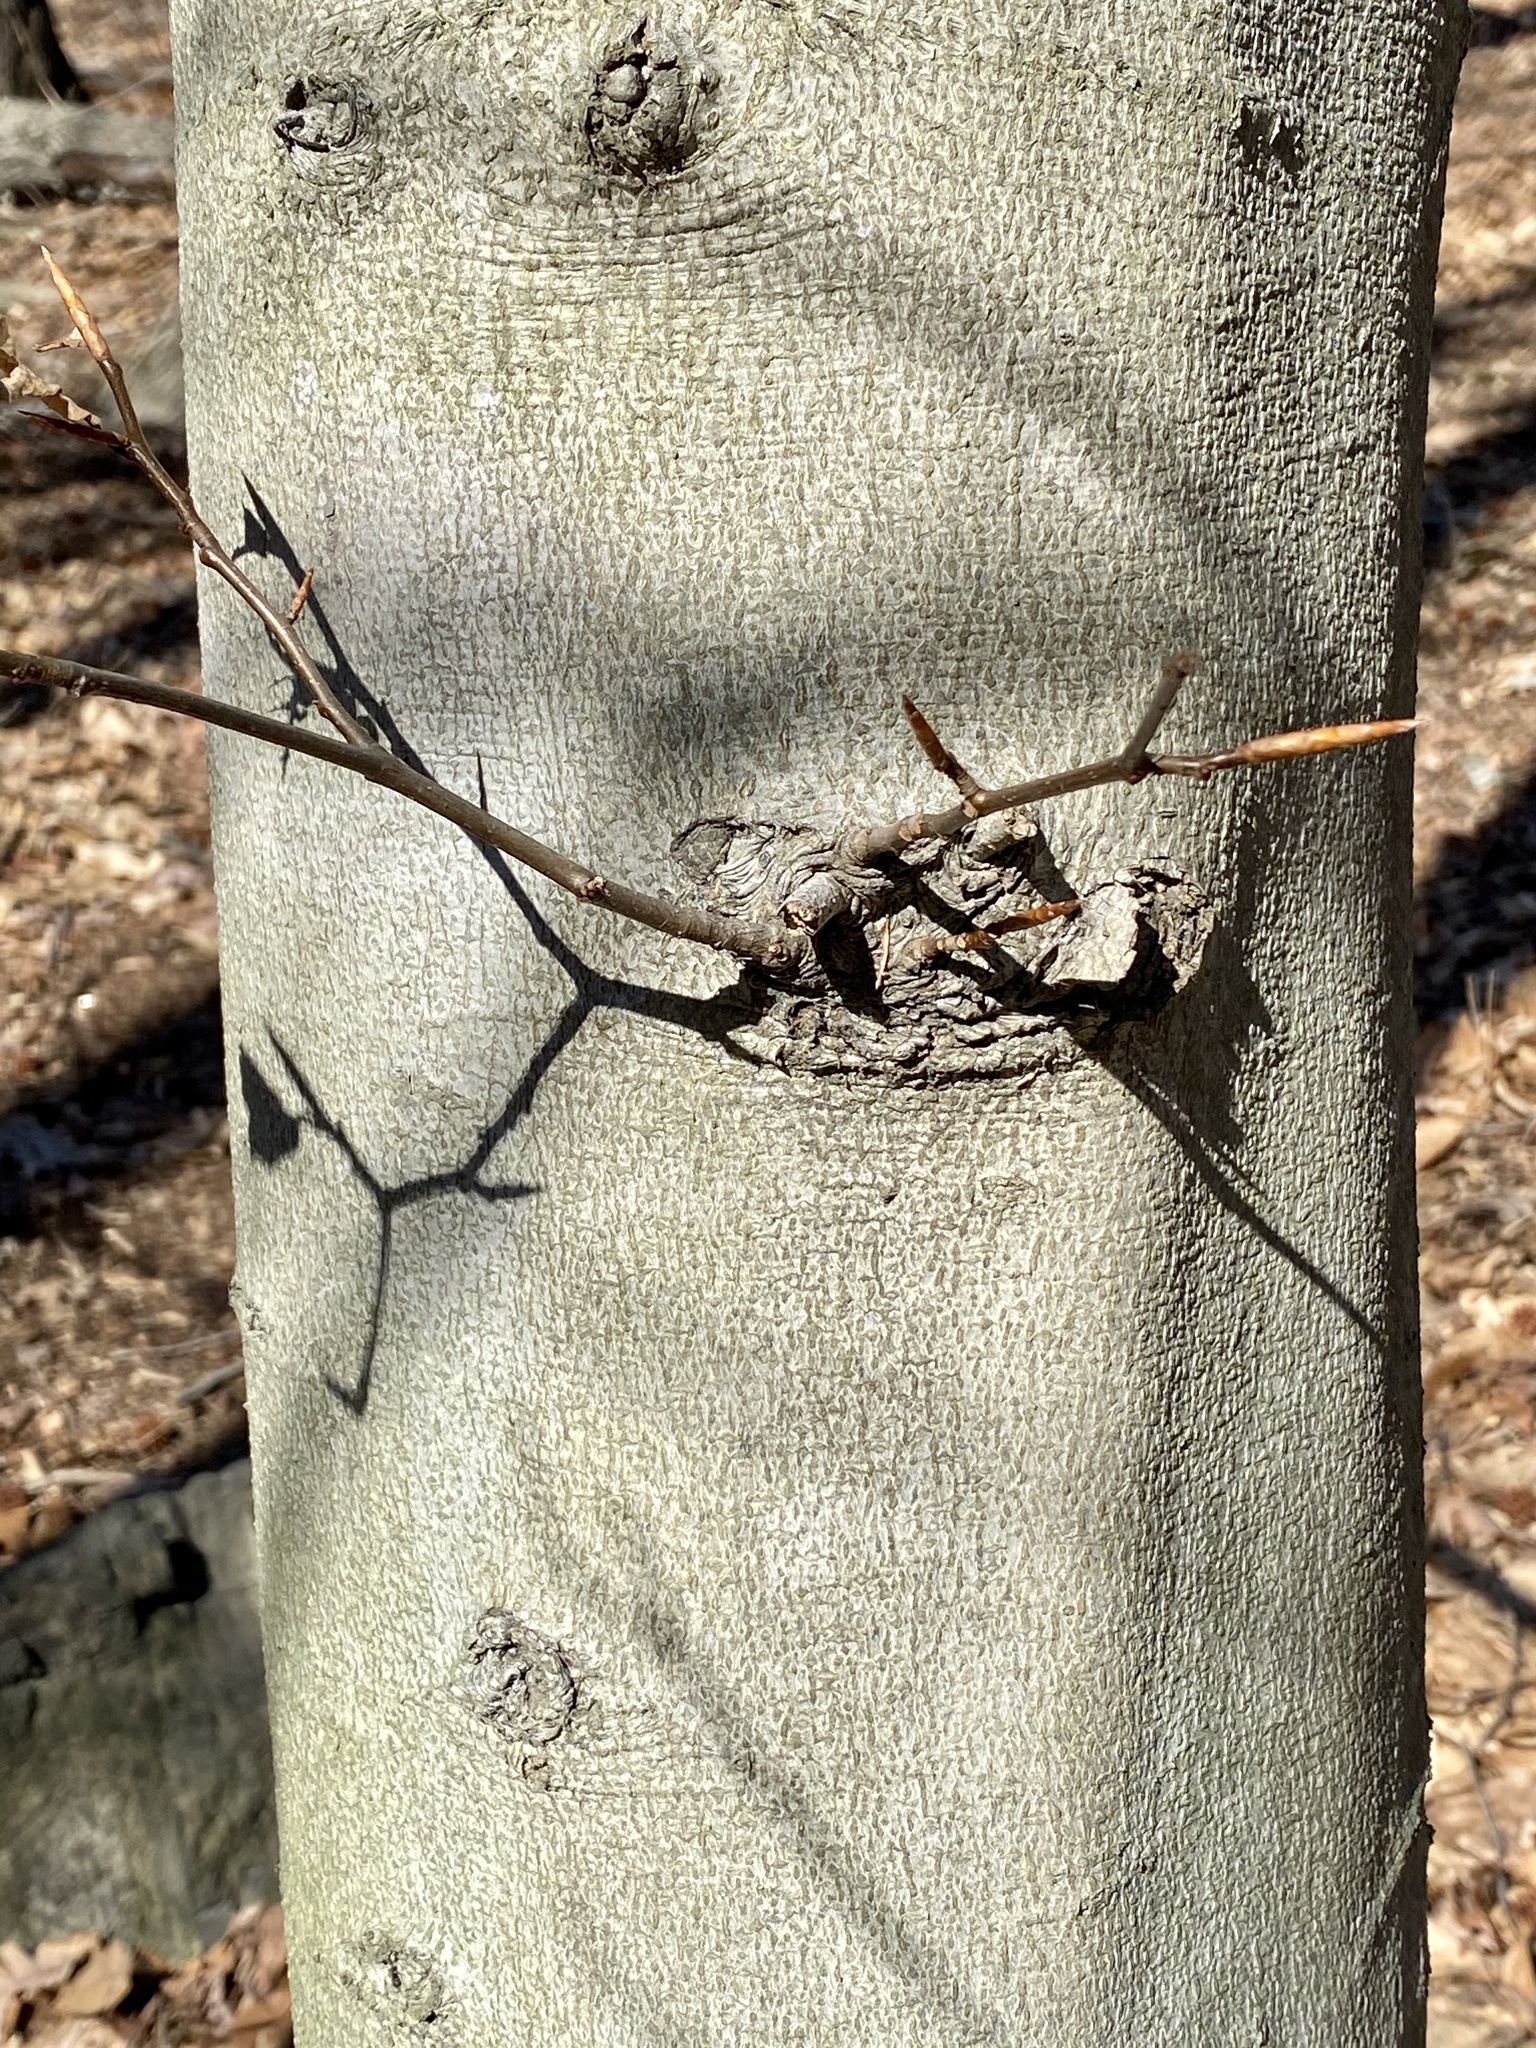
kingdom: Plantae
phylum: Tracheophyta
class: Magnoliopsida
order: Fagales
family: Fagaceae
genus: Fagus
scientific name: Fagus grandifolia
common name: American beech
